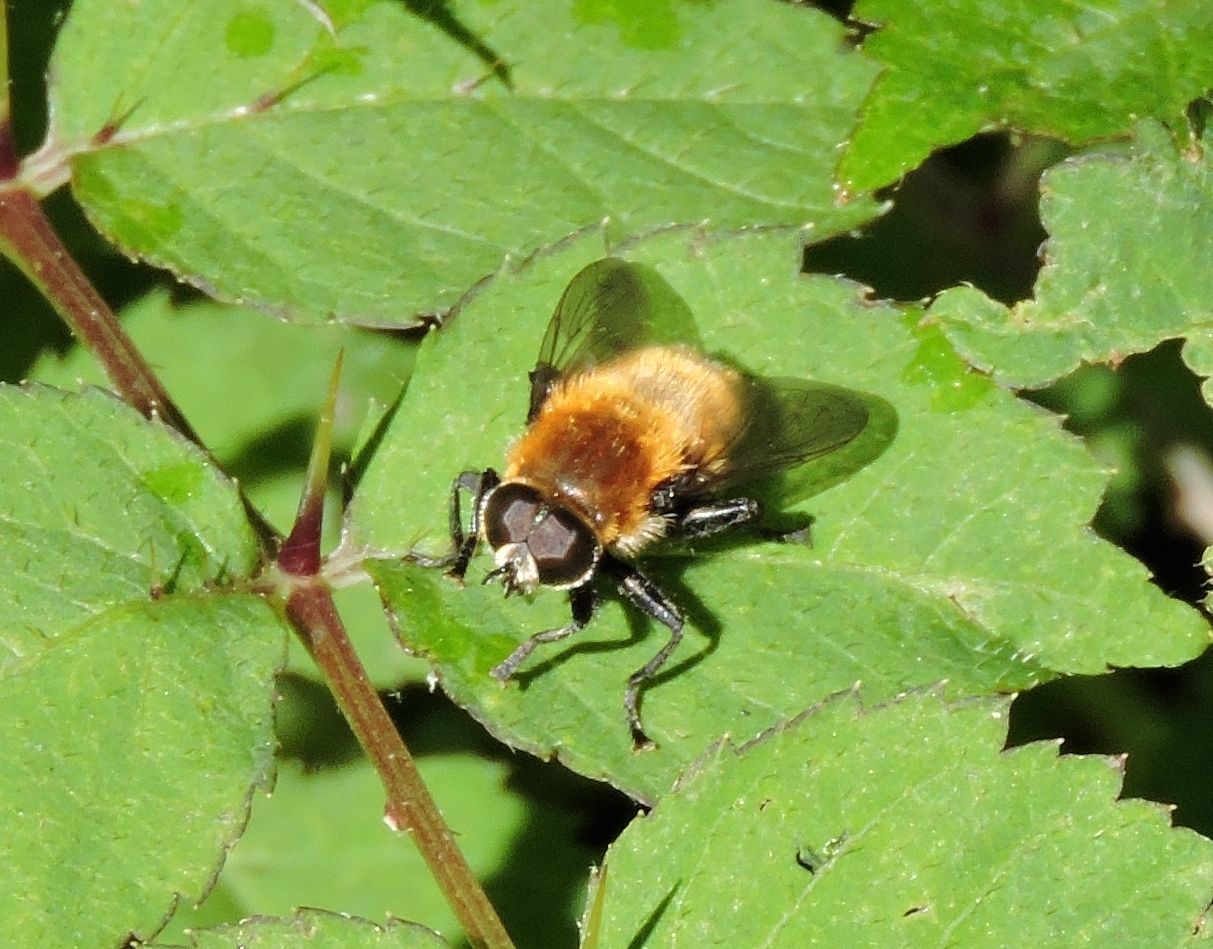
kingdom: Animalia
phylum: Arthropoda
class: Insecta
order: Diptera
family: Syrphidae
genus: Merodon
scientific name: Merodon equestris
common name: Greater bulb-fly
